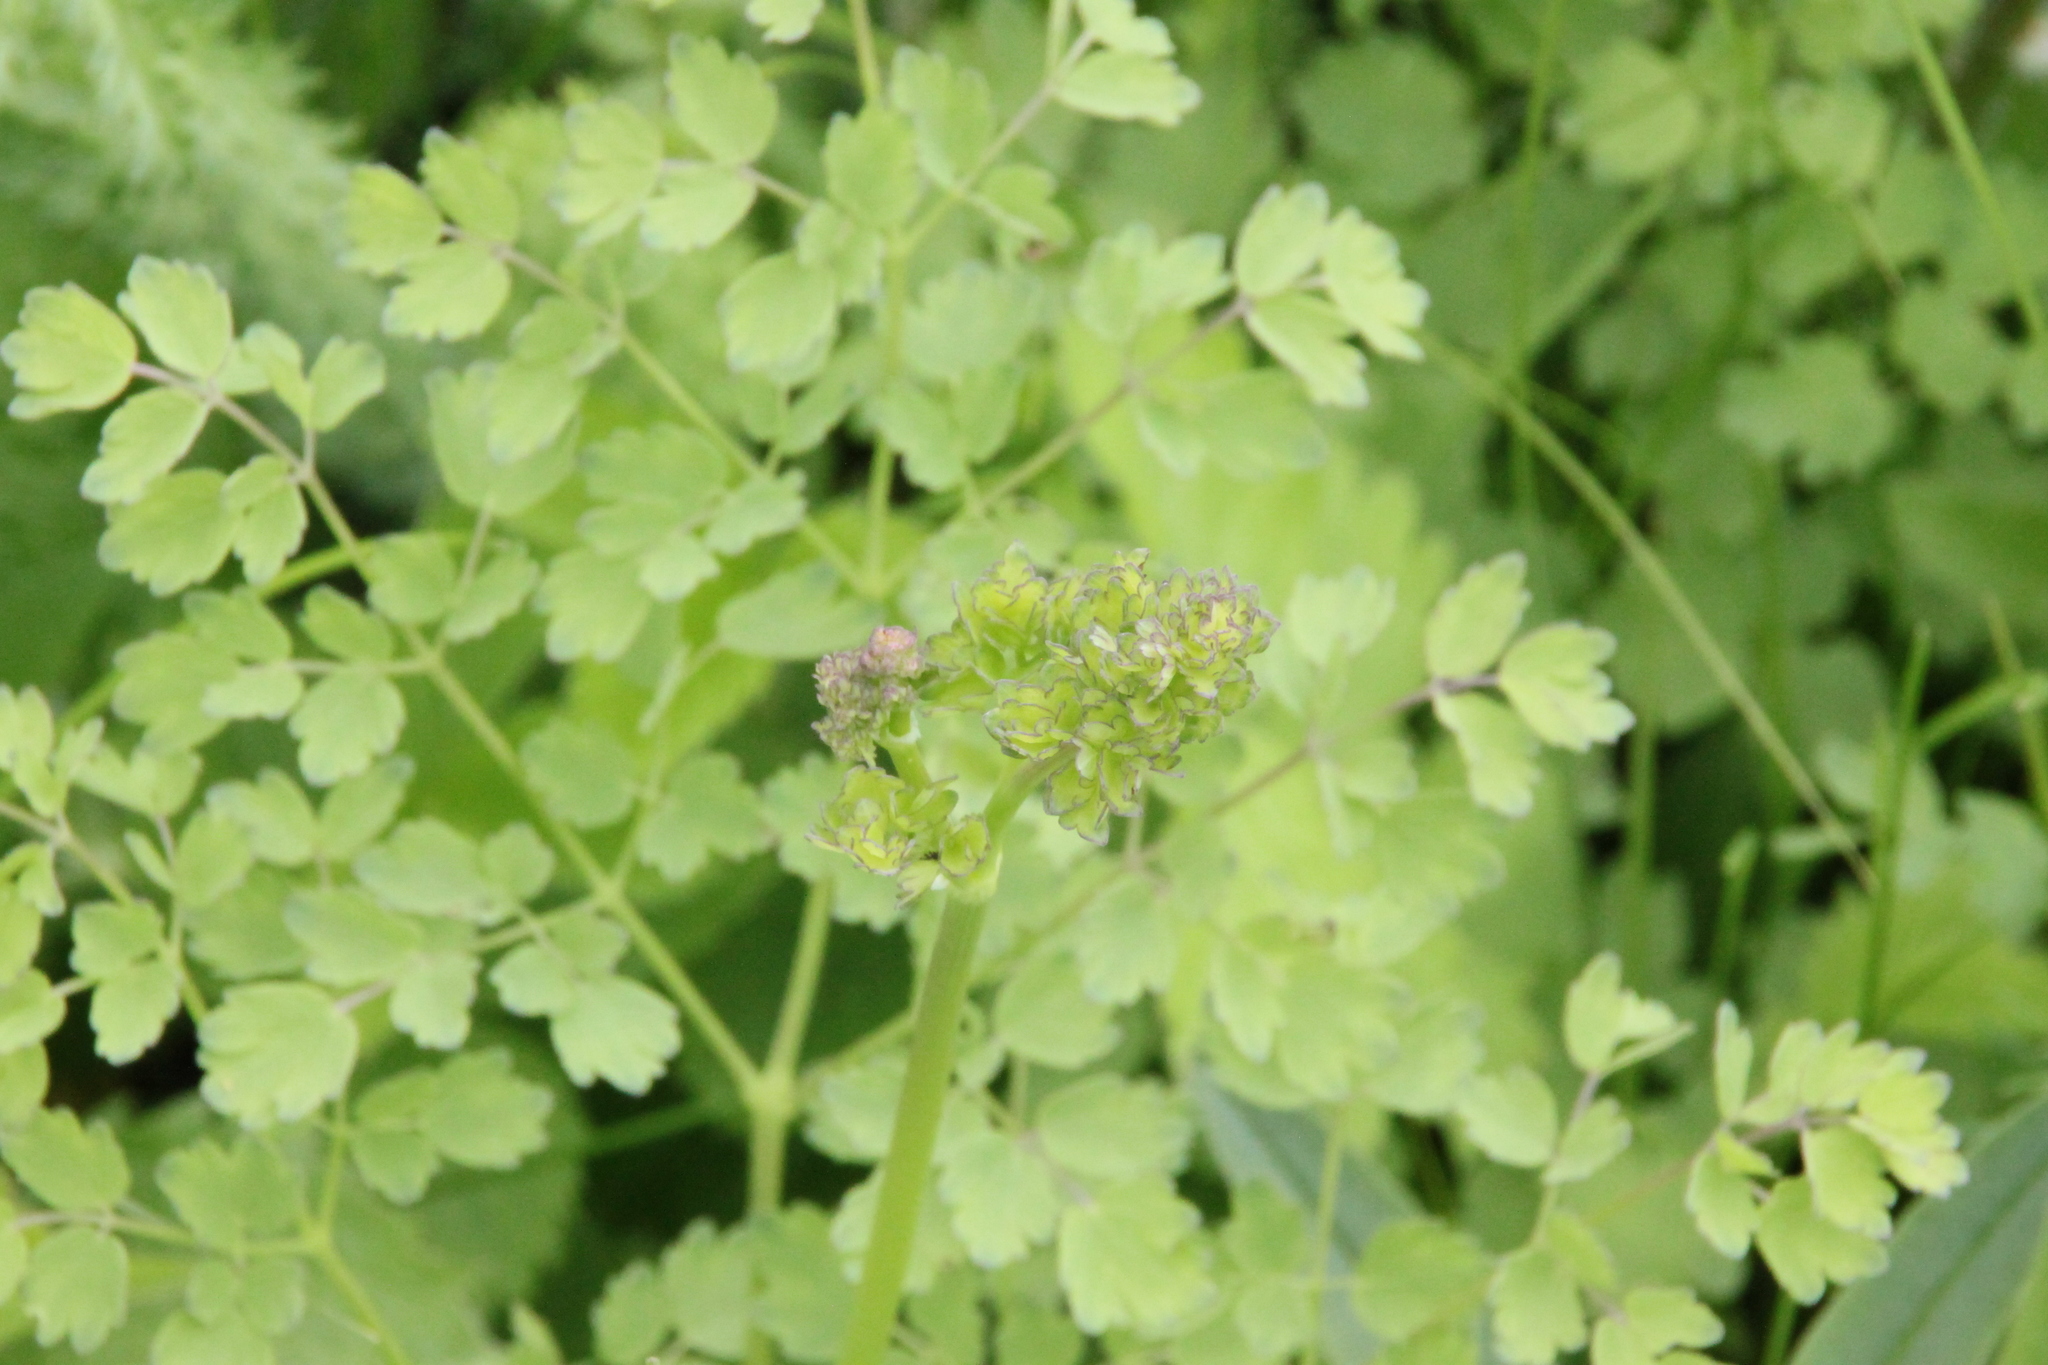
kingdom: Plantae
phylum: Tracheophyta
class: Magnoliopsida
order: Ranunculales
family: Ranunculaceae
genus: Thalictrum
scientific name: Thalictrum minus
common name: Lesser meadow-rue
